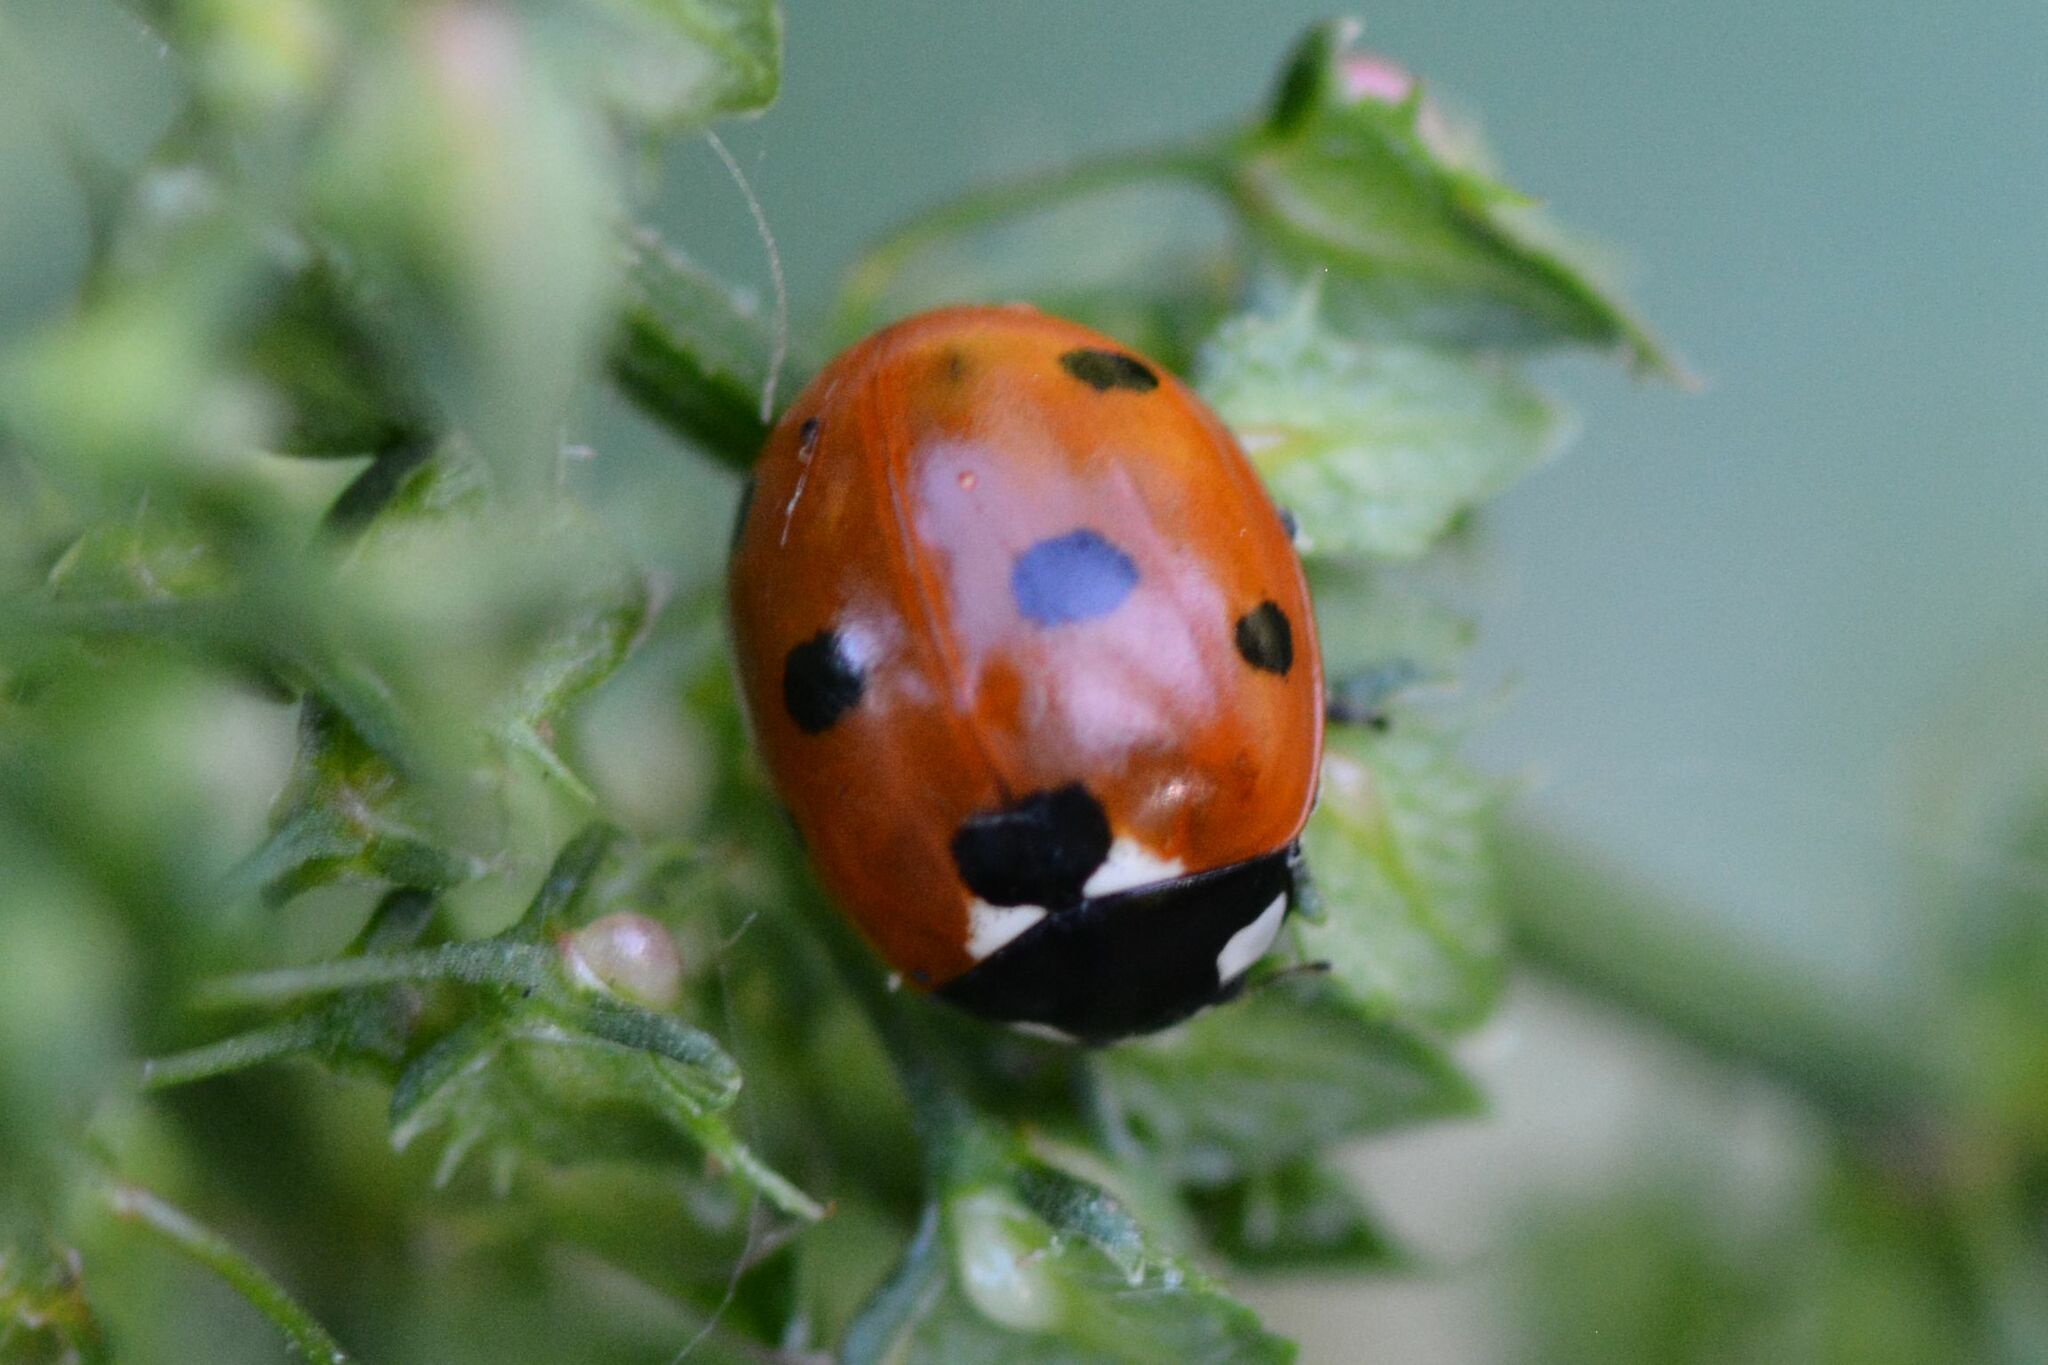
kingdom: Animalia
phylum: Arthropoda
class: Insecta
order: Coleoptera
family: Coccinellidae
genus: Coccinella
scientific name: Coccinella septempunctata
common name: Sevenspotted lady beetle
